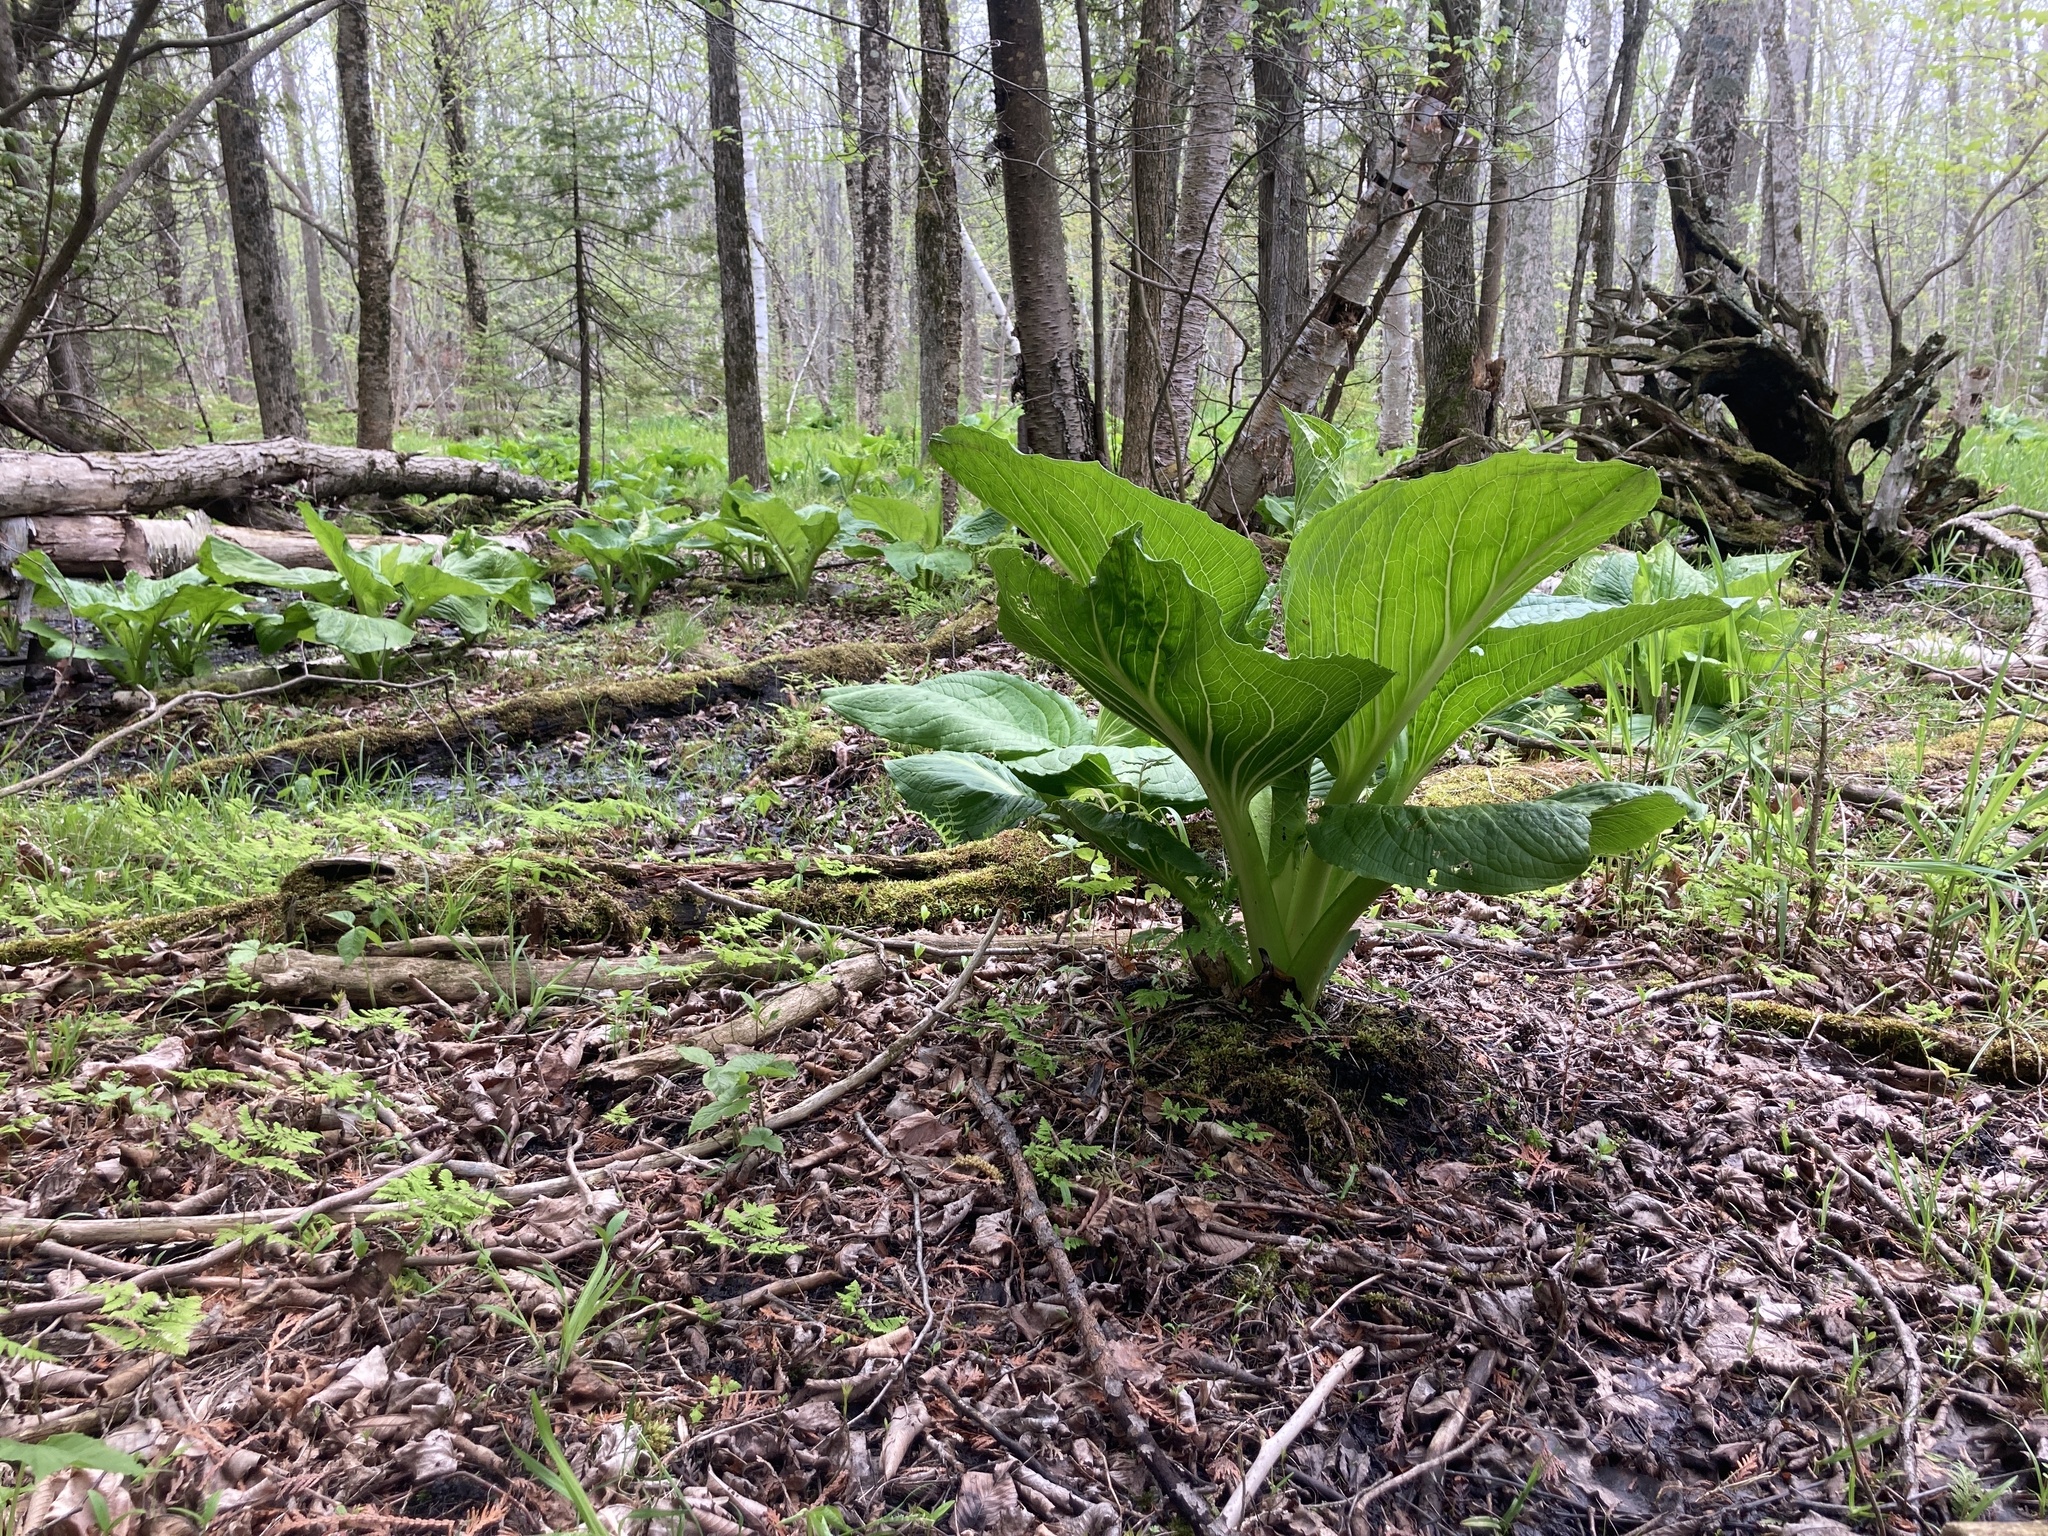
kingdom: Plantae
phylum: Tracheophyta
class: Liliopsida
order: Alismatales
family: Araceae
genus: Symplocarpus
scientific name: Symplocarpus foetidus
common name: Eastern skunk cabbage
